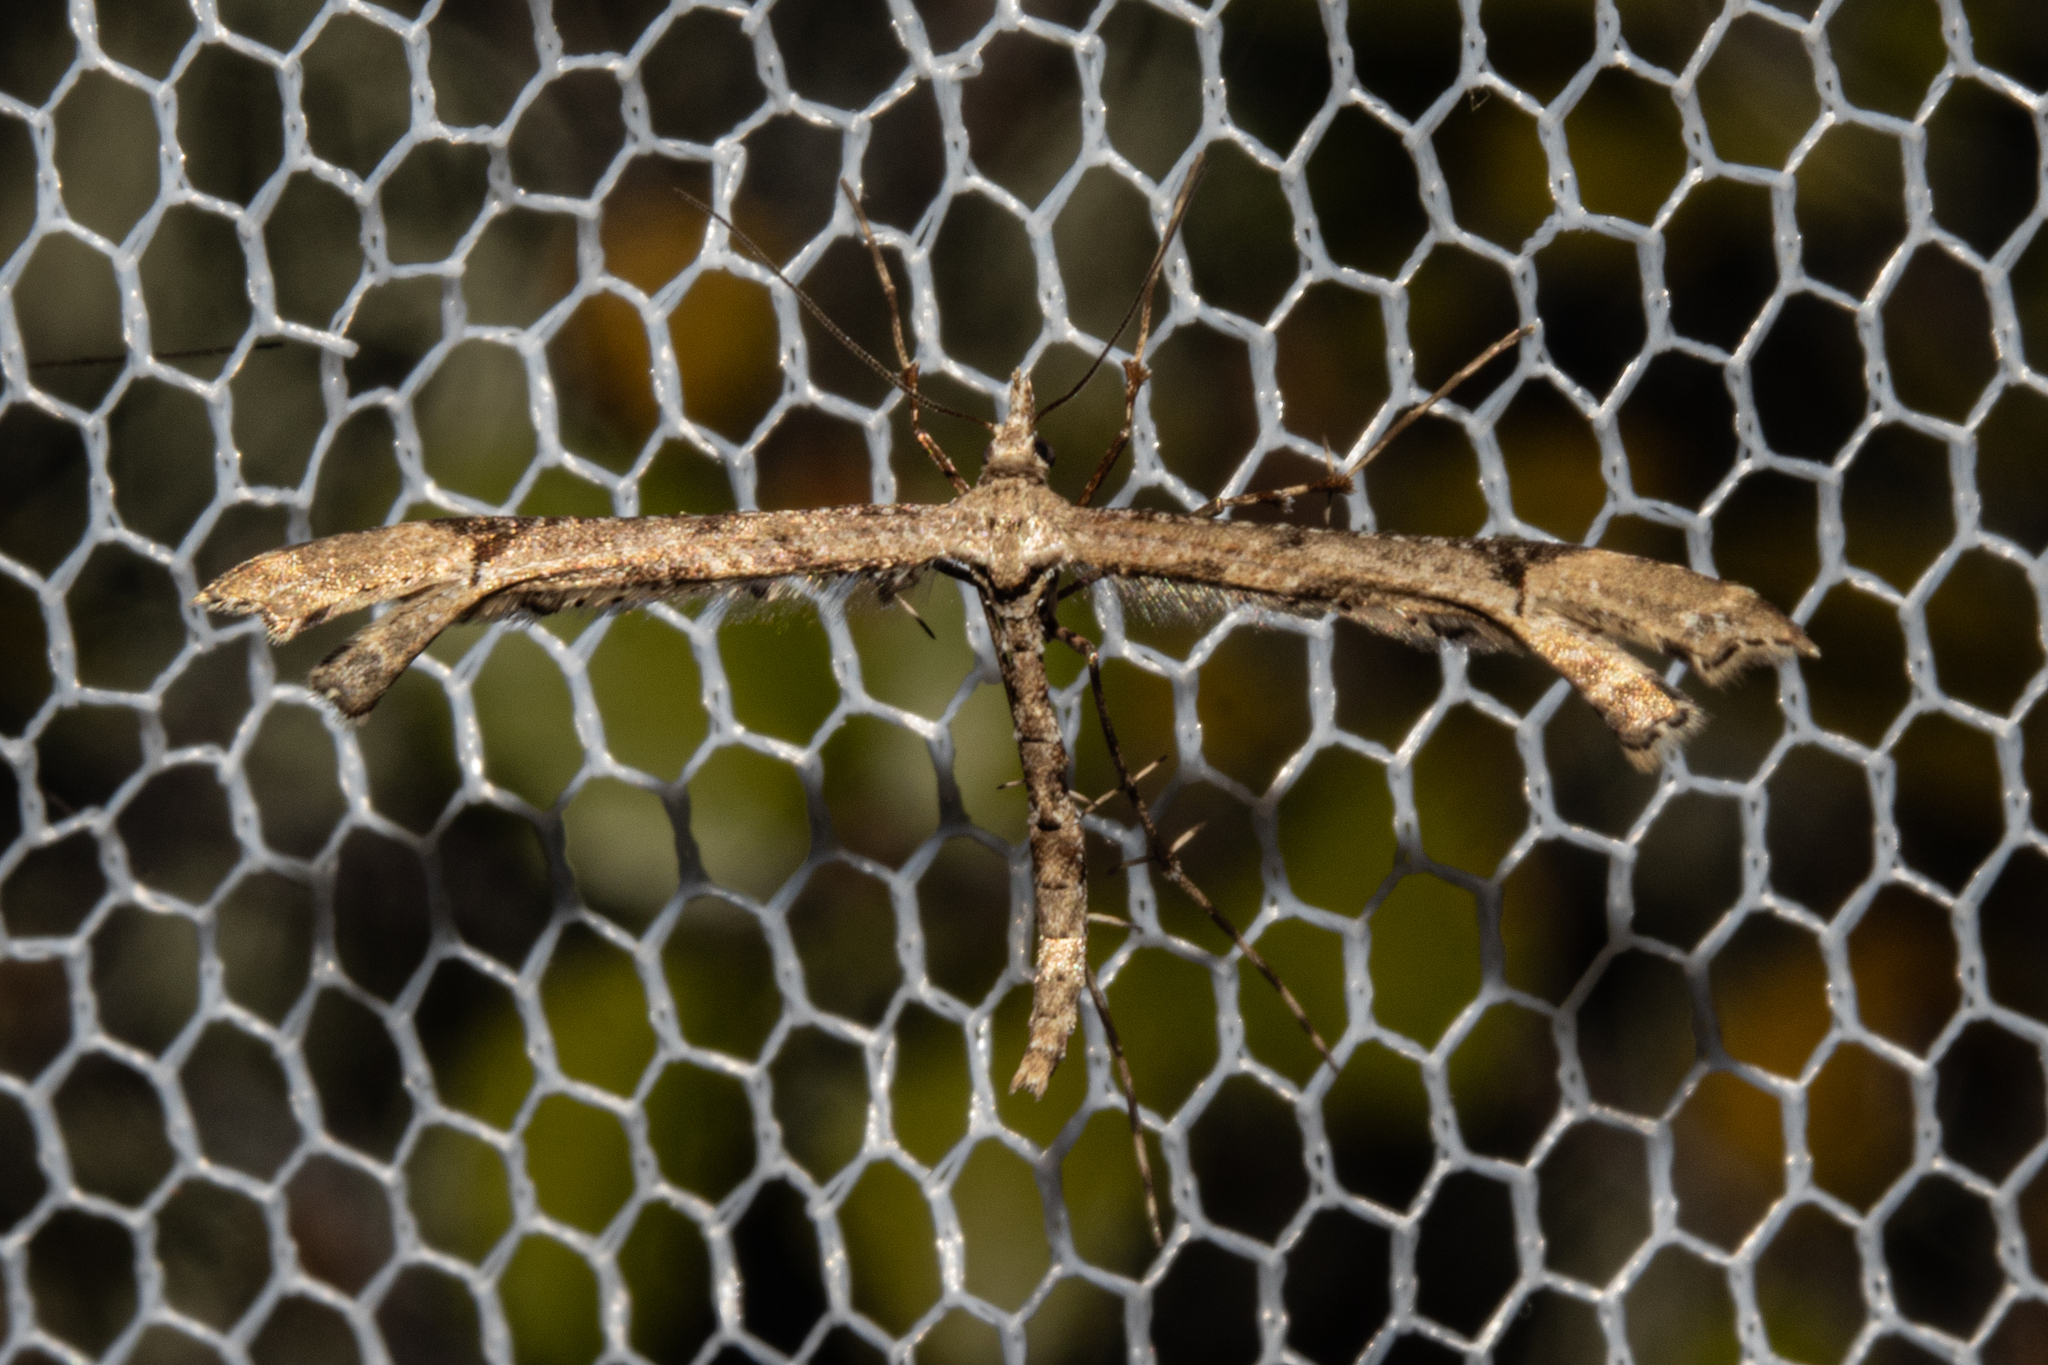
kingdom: Animalia
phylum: Arthropoda
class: Insecta
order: Lepidoptera
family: Pterophoridae
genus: Amblyptilia
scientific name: Amblyptilia repletalis
